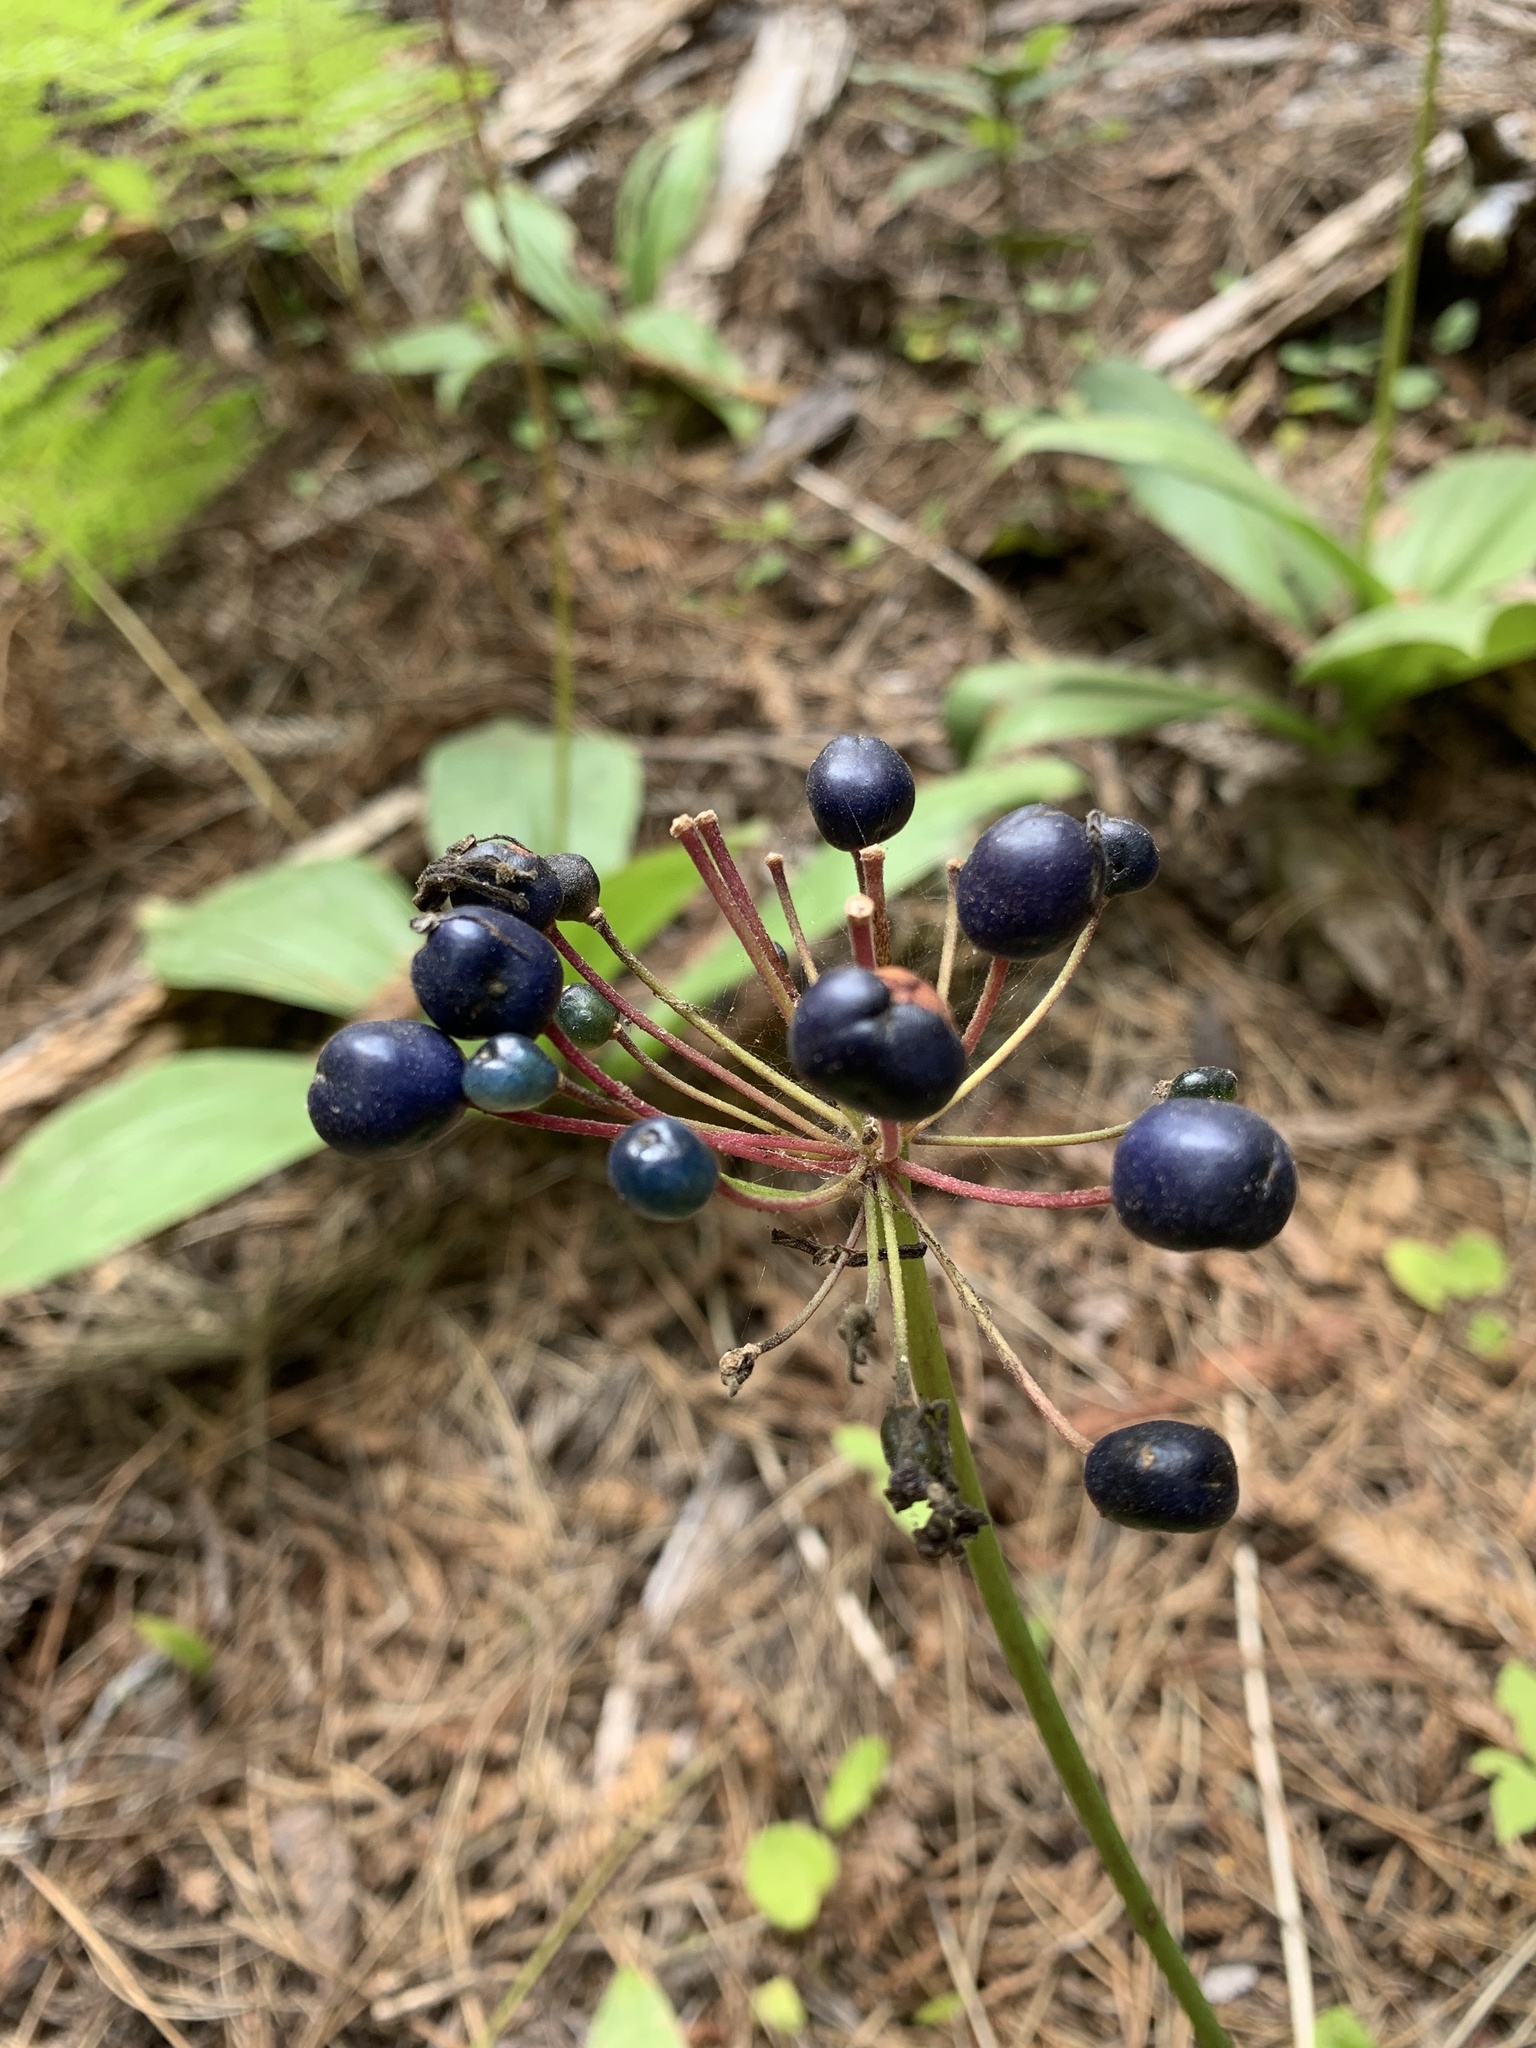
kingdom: Plantae
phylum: Tracheophyta
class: Liliopsida
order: Liliales
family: Liliaceae
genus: Clintonia
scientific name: Clintonia andrewsiana
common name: Red clintonia
